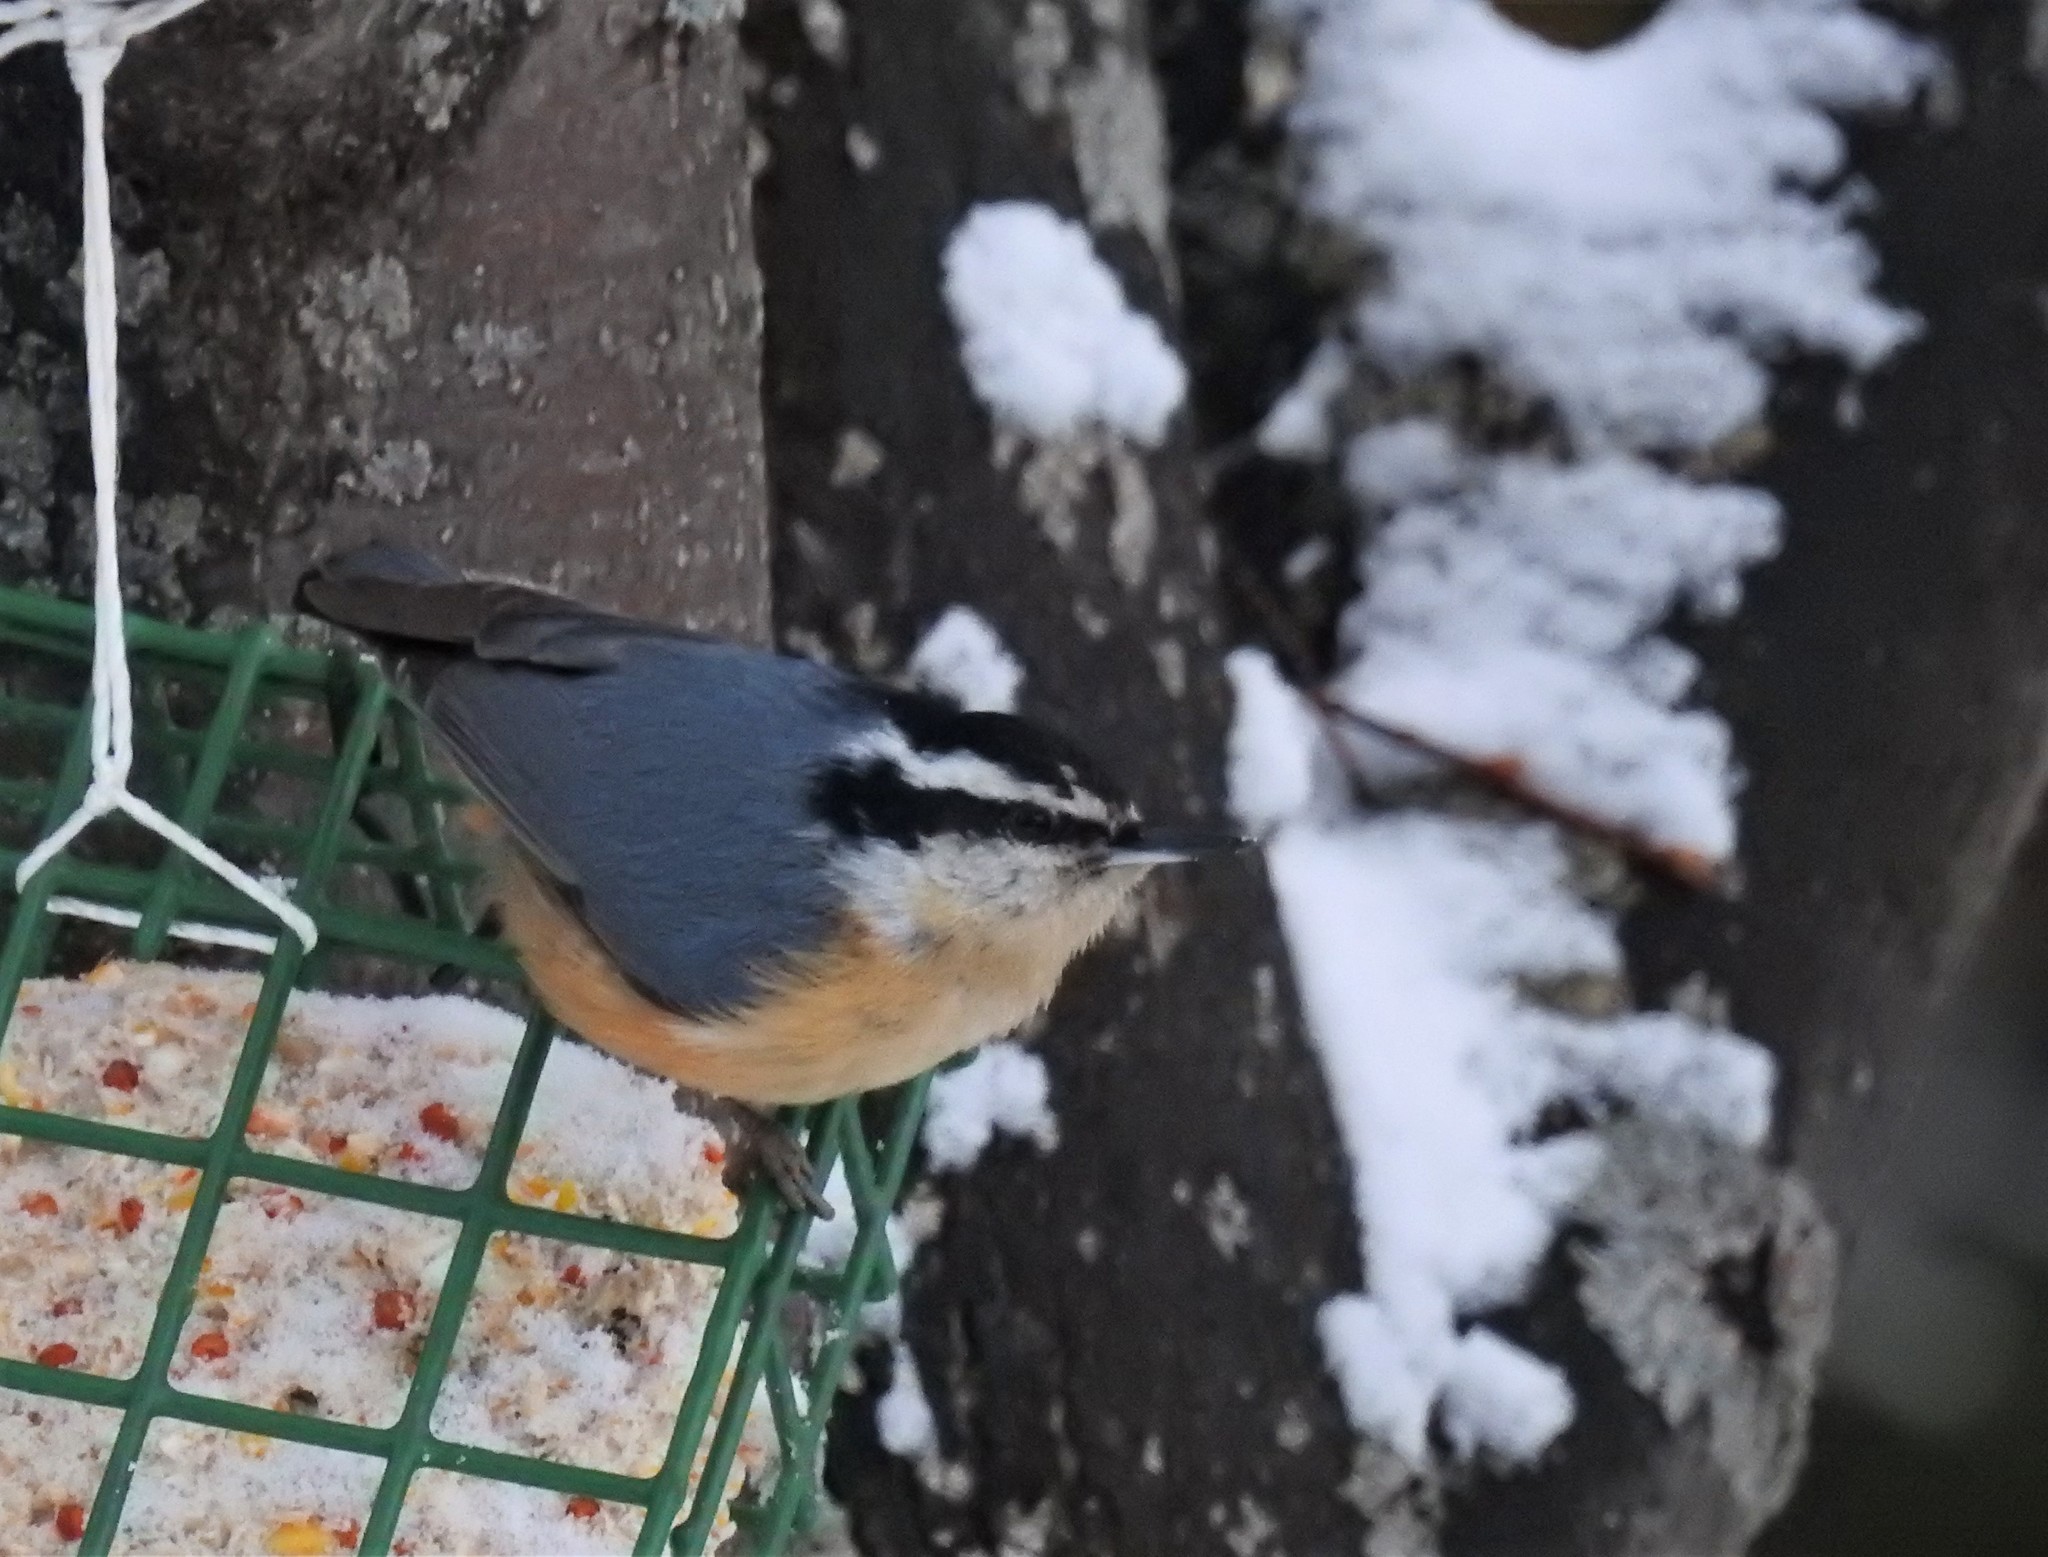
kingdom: Animalia
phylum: Chordata
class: Aves
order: Passeriformes
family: Sittidae
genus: Sitta
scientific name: Sitta canadensis
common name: Red-breasted nuthatch
